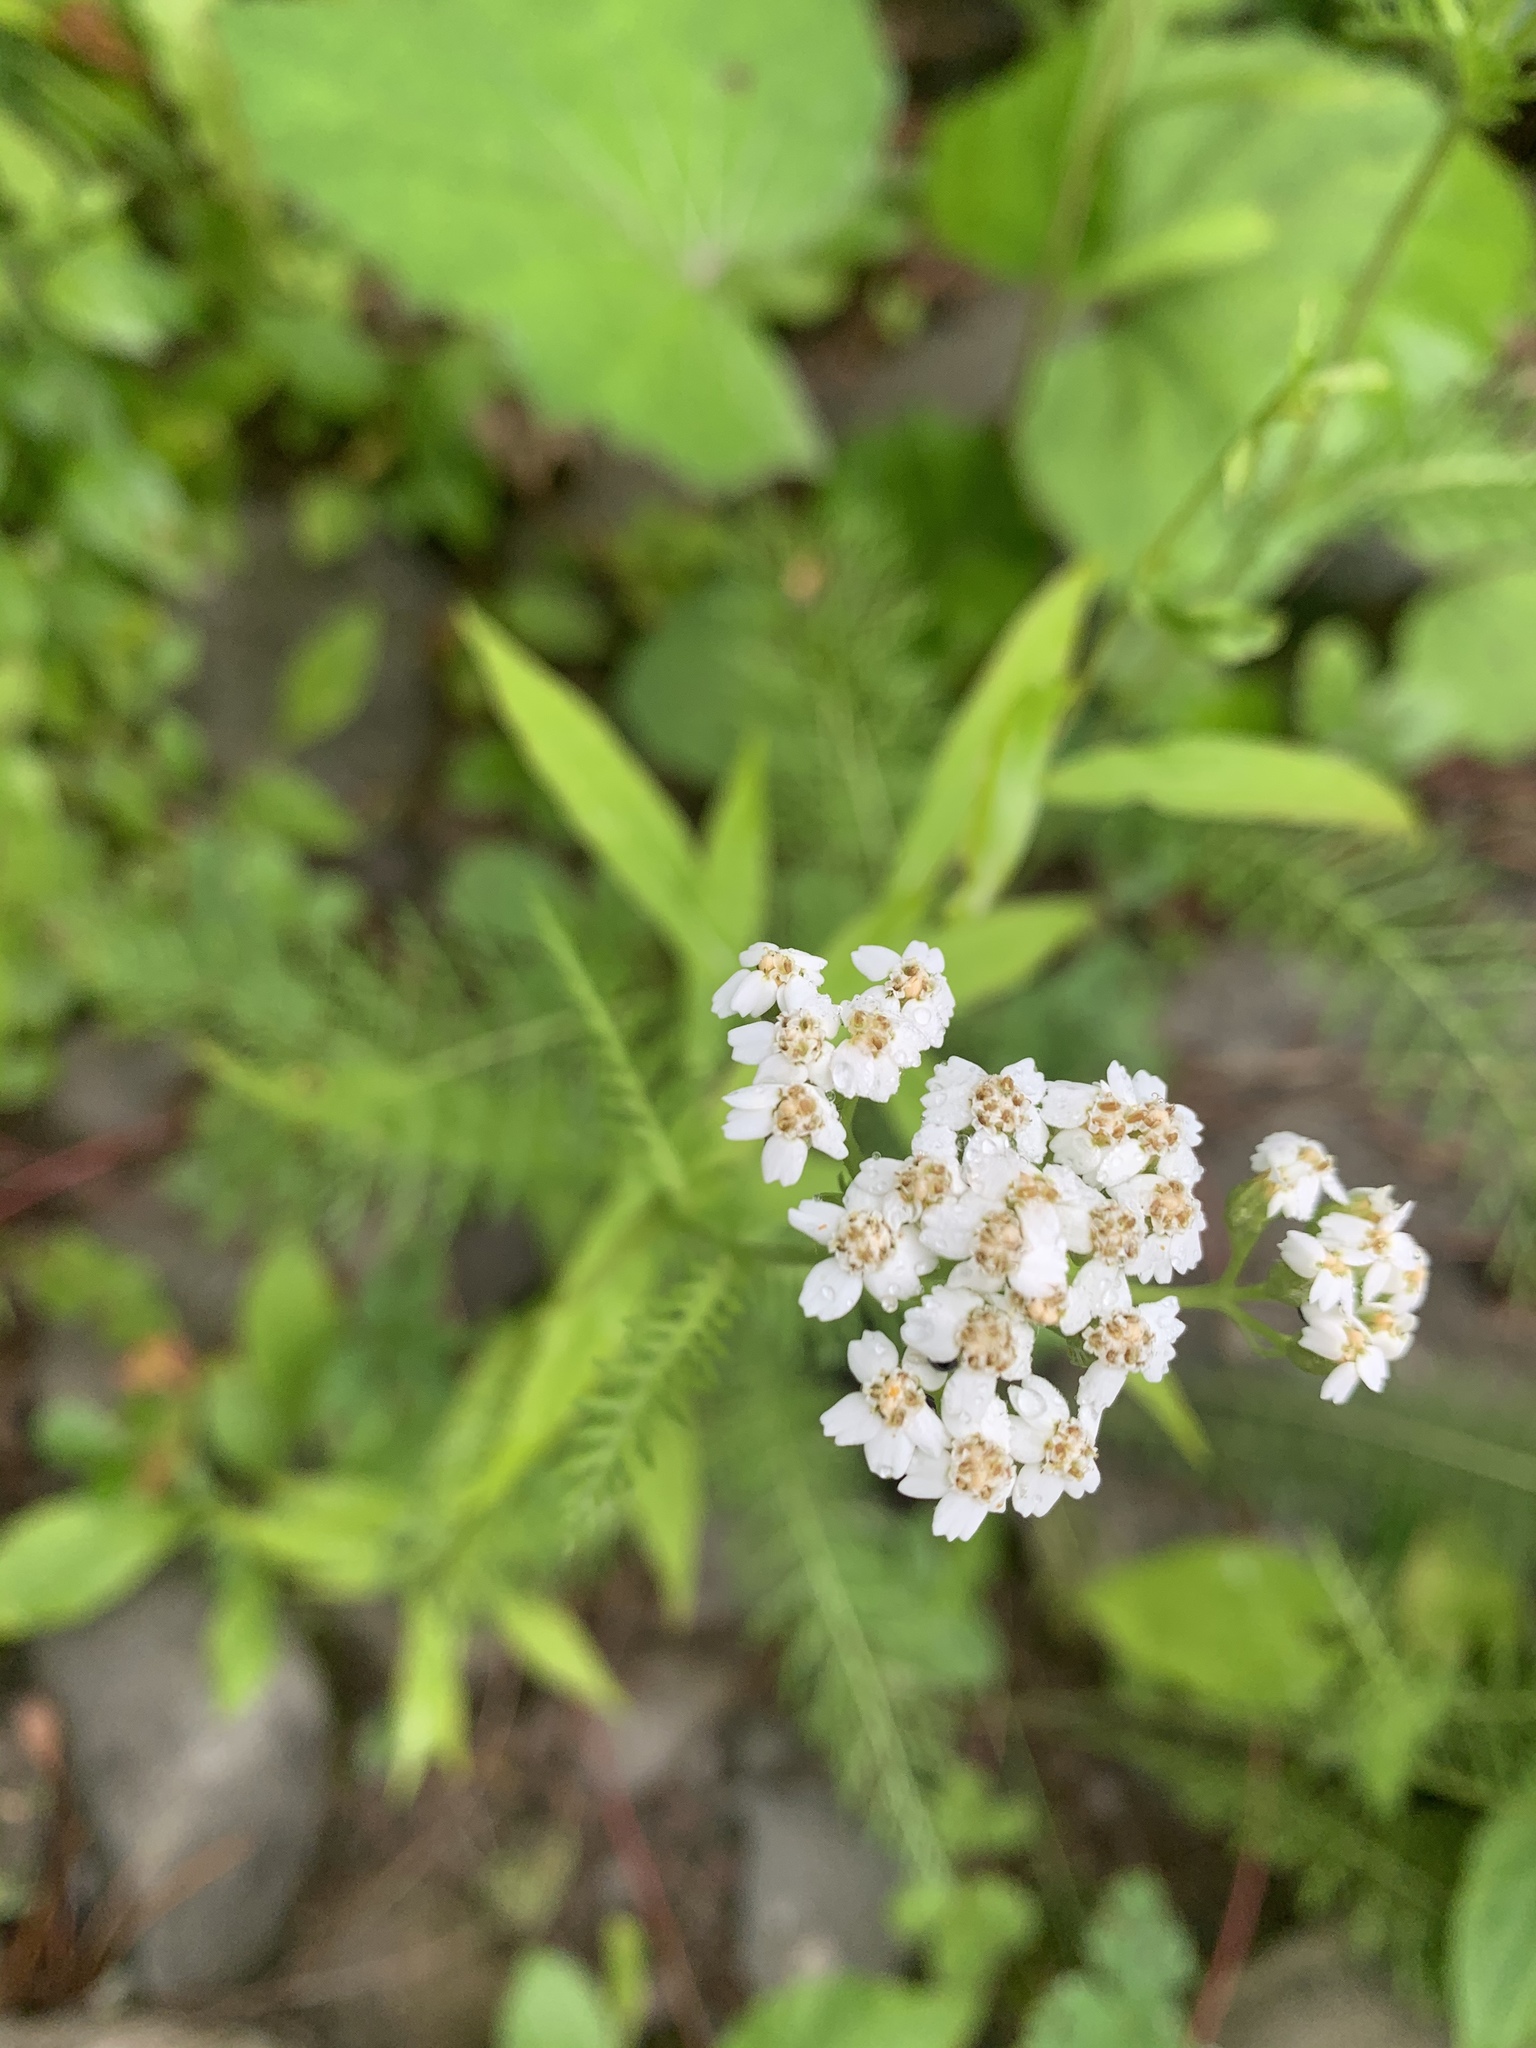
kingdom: Plantae
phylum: Tracheophyta
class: Magnoliopsida
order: Asterales
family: Asteraceae
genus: Achillea
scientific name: Achillea millefolium
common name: Yarrow
